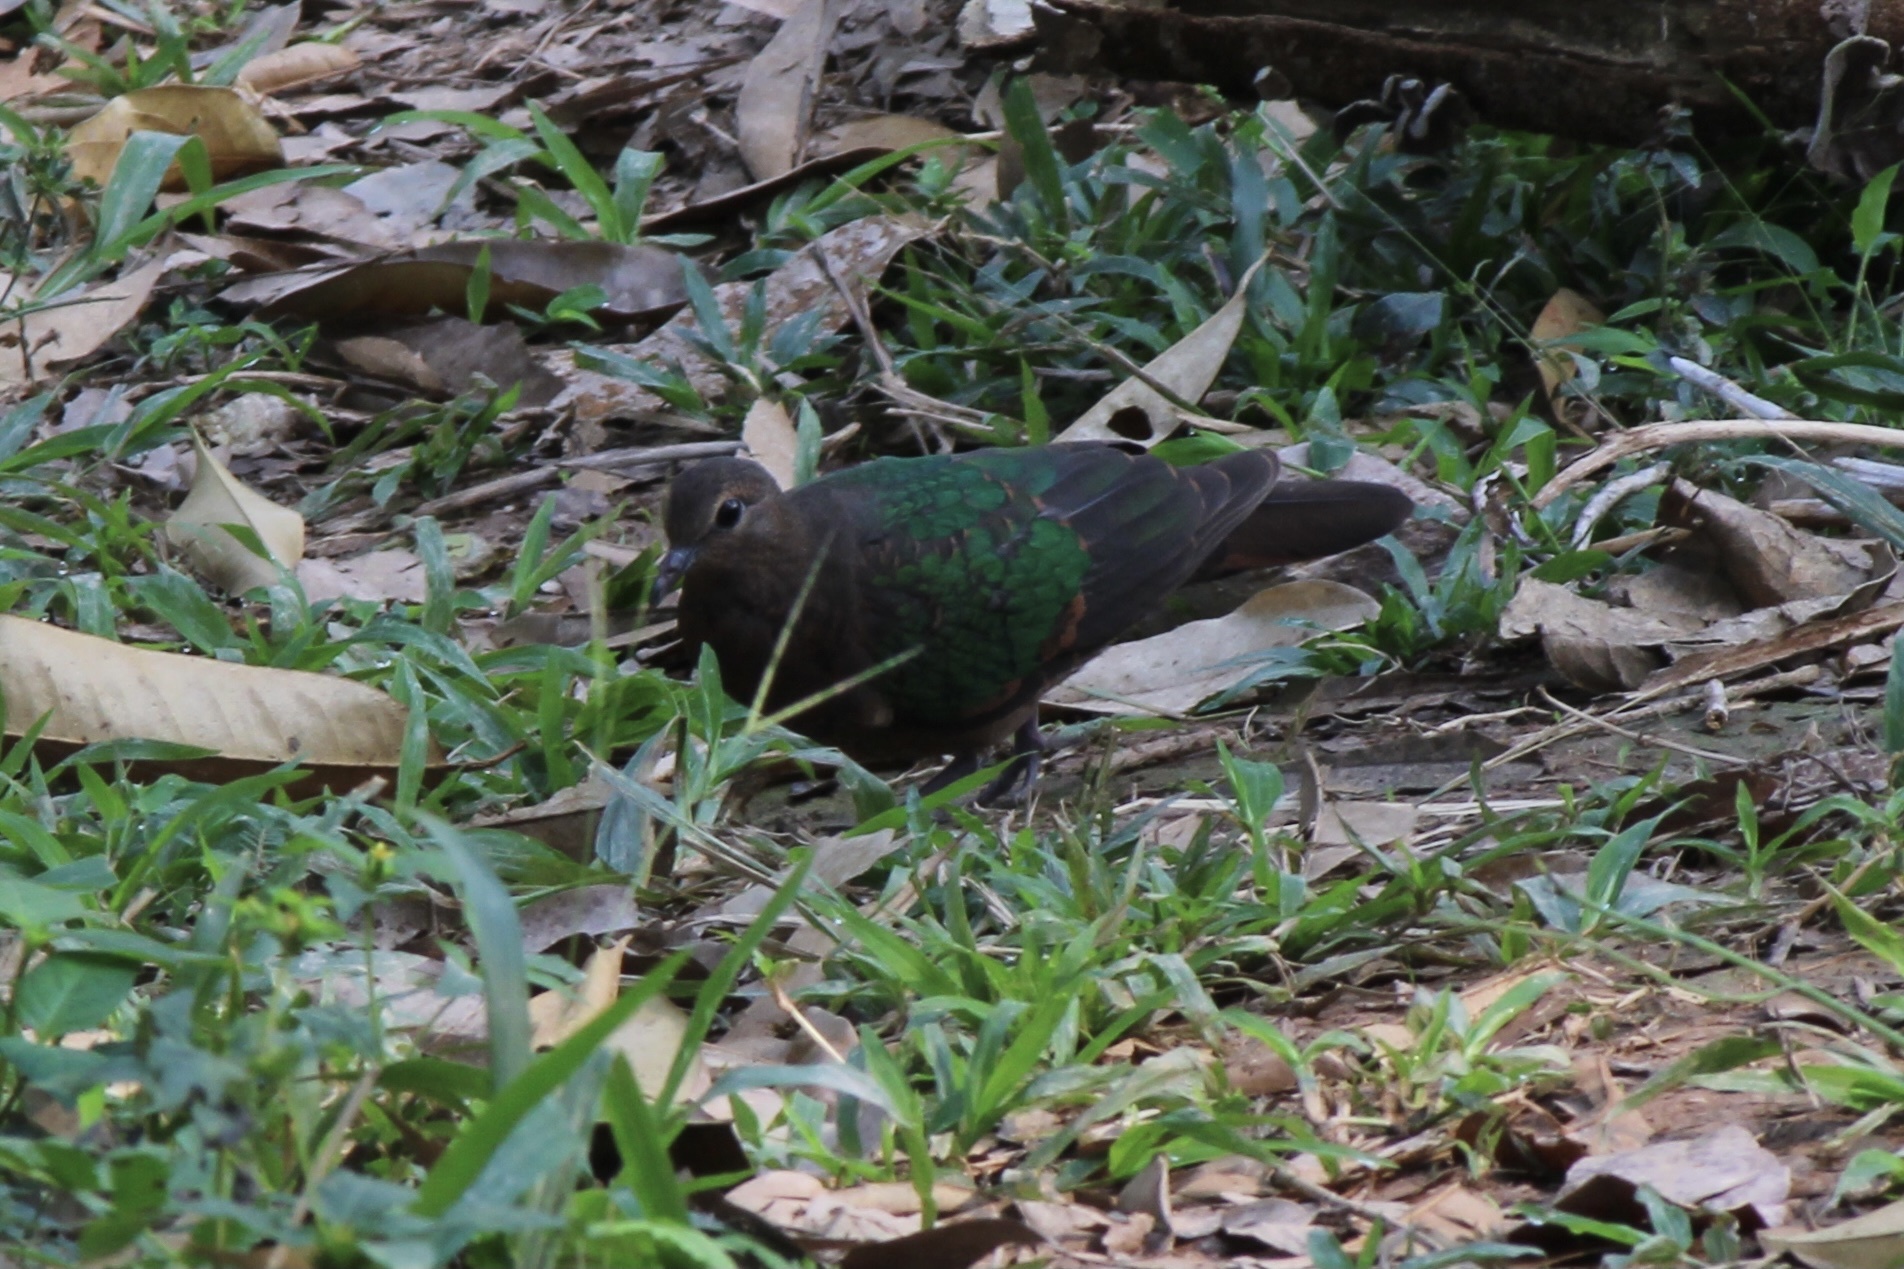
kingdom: Animalia
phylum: Chordata
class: Aves
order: Columbiformes
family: Columbidae
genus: Chalcophaps
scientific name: Chalcophaps indica
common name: Common emerald dove
